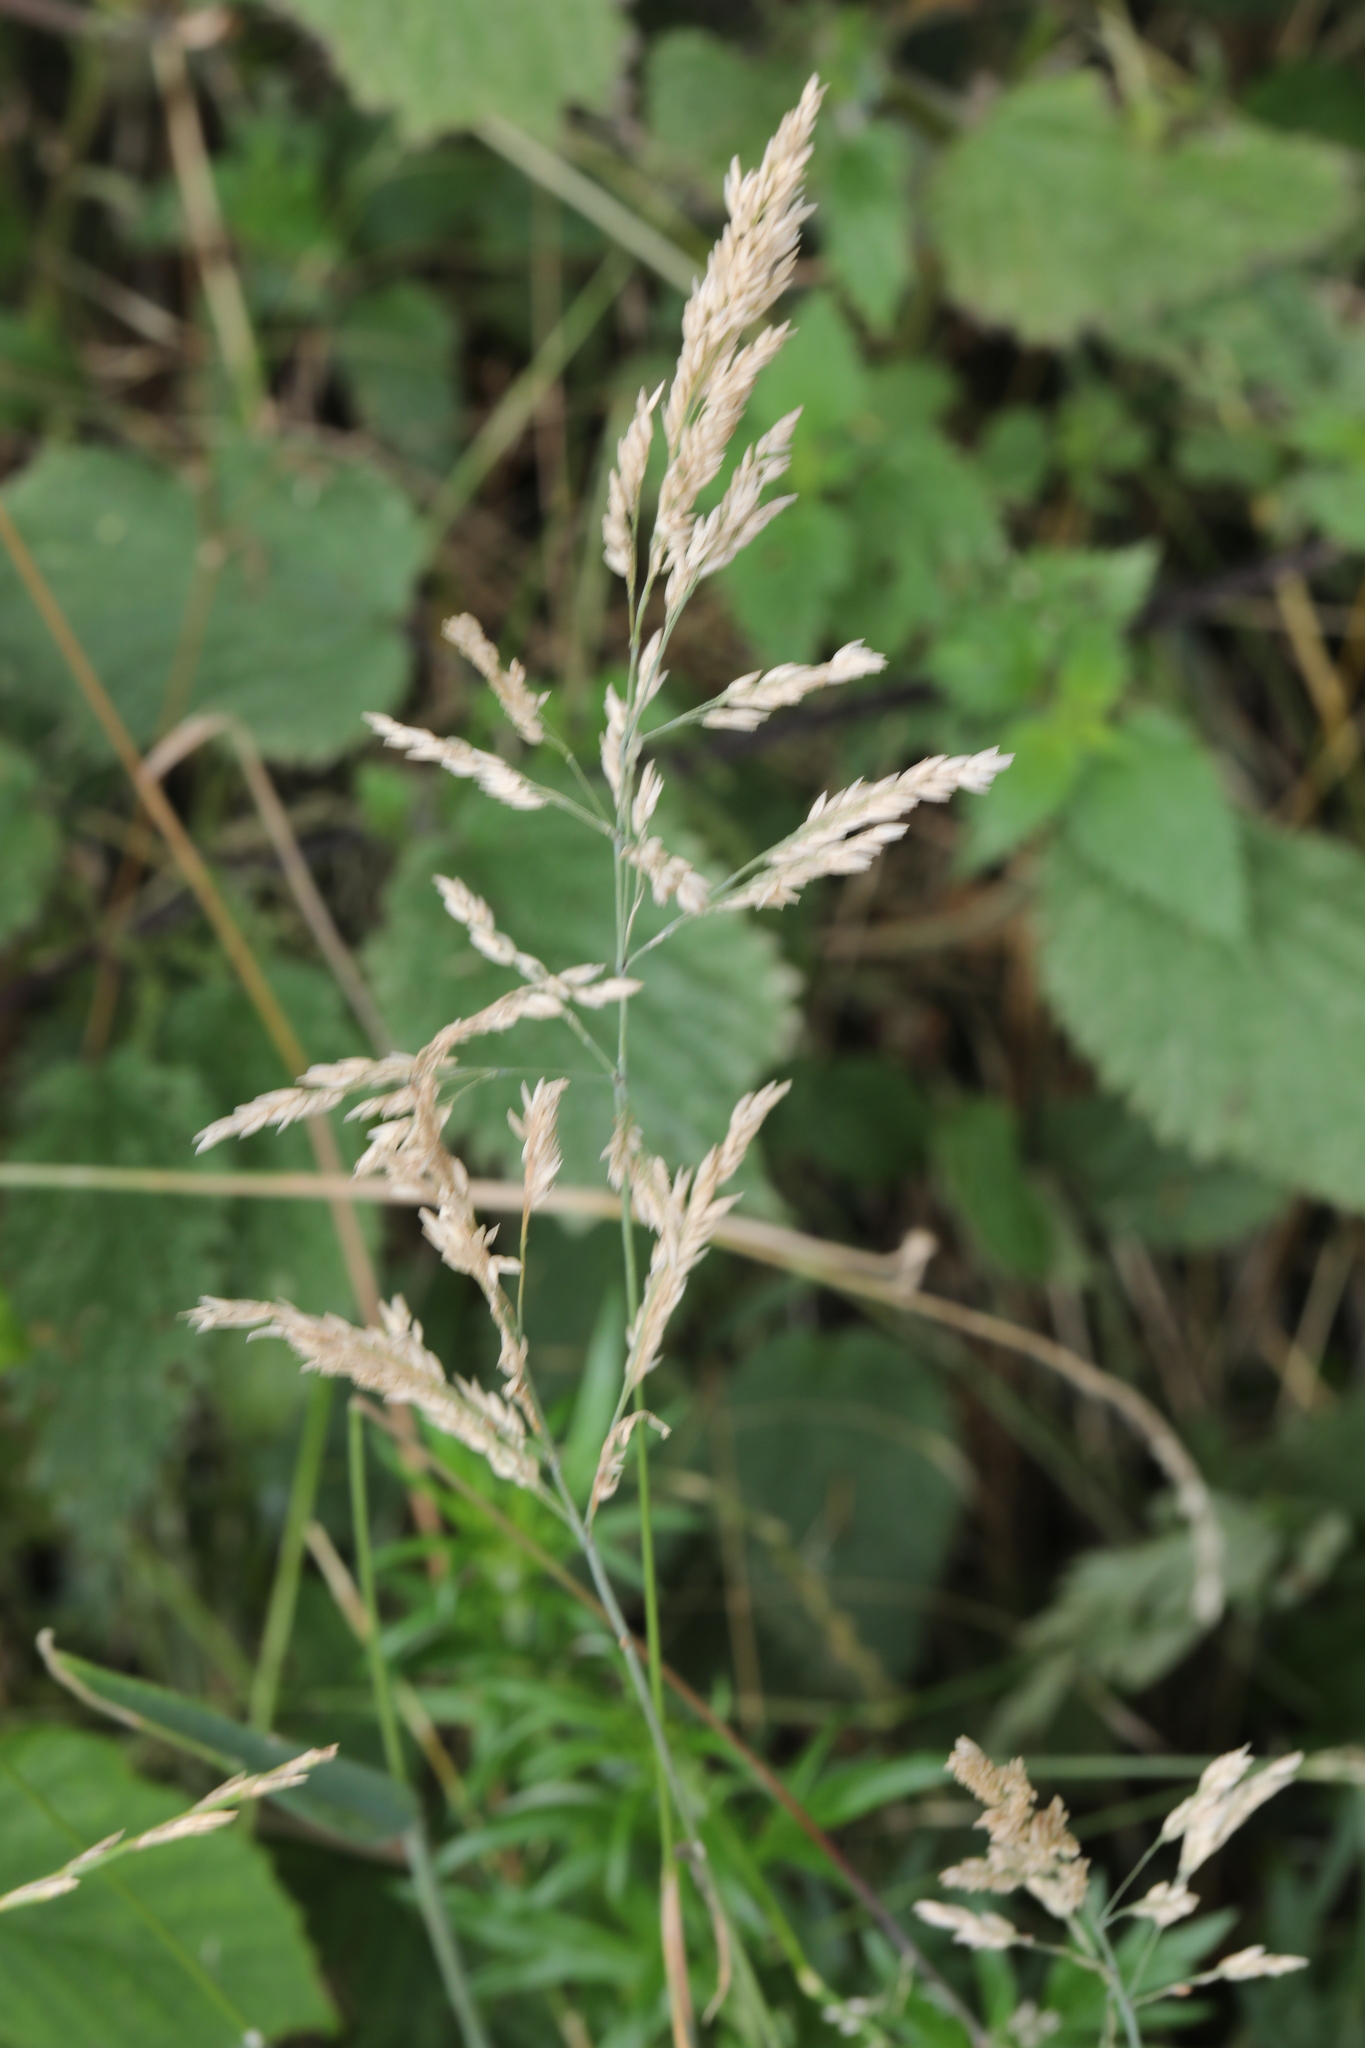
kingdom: Plantae
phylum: Tracheophyta
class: Liliopsida
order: Poales
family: Poaceae
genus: Holcus
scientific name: Holcus lanatus
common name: Yorkshire-fog
